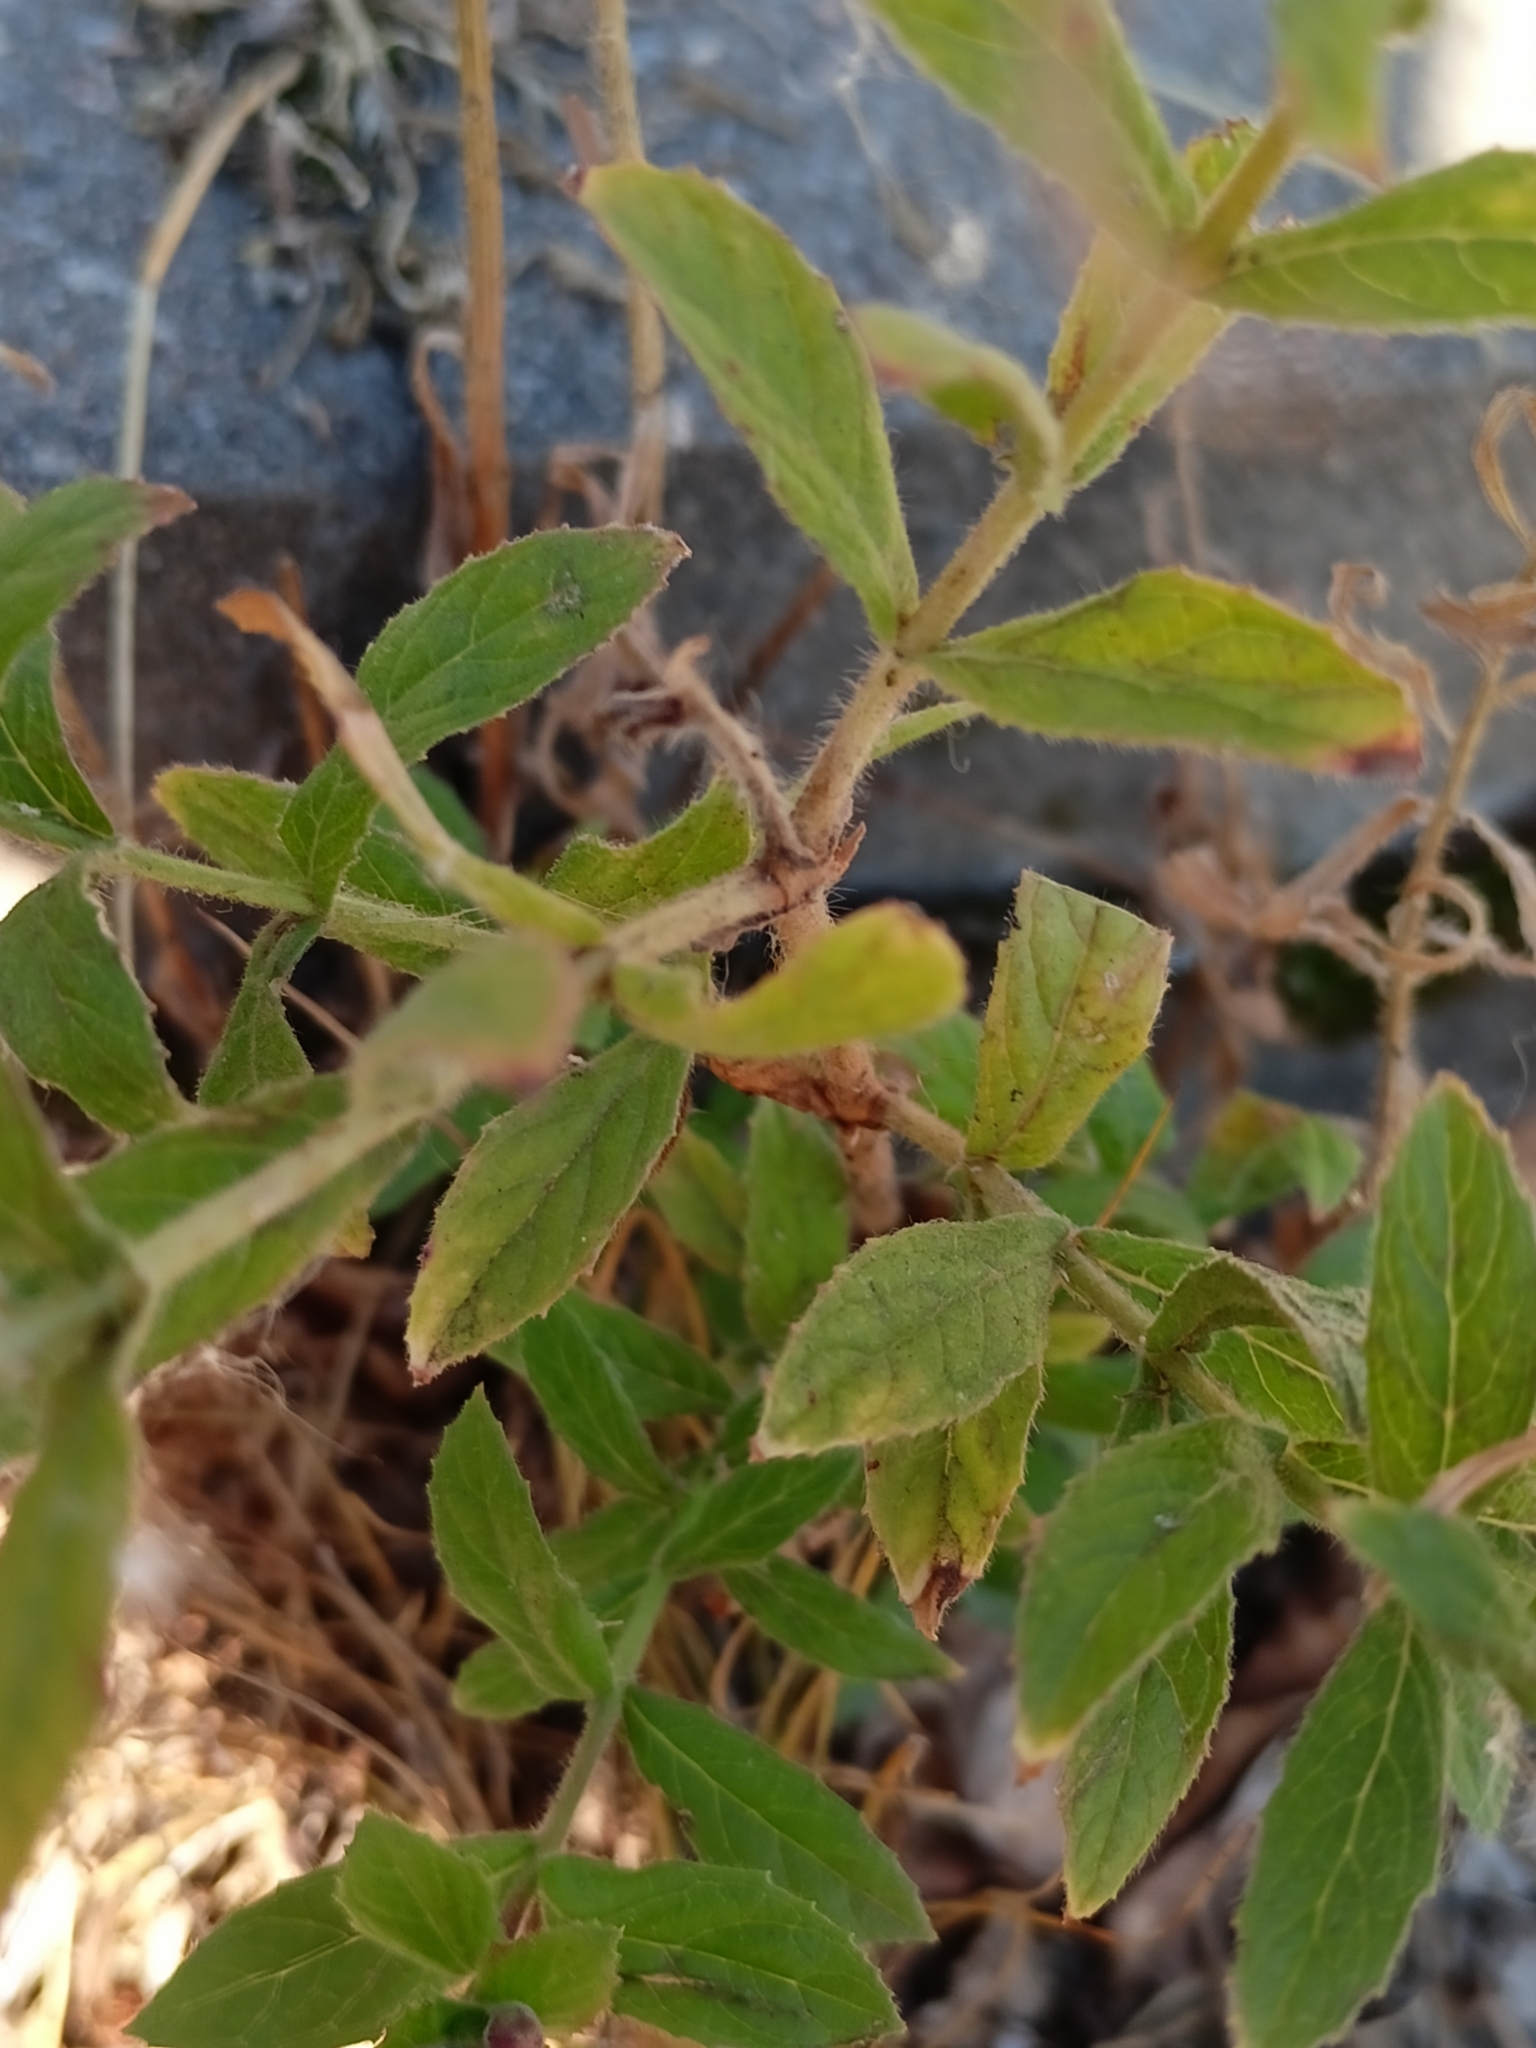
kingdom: Plantae
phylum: Tracheophyta
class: Magnoliopsida
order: Myrtales
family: Onagraceae
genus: Epilobium
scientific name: Epilobium hirsutum
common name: Great willowherb
